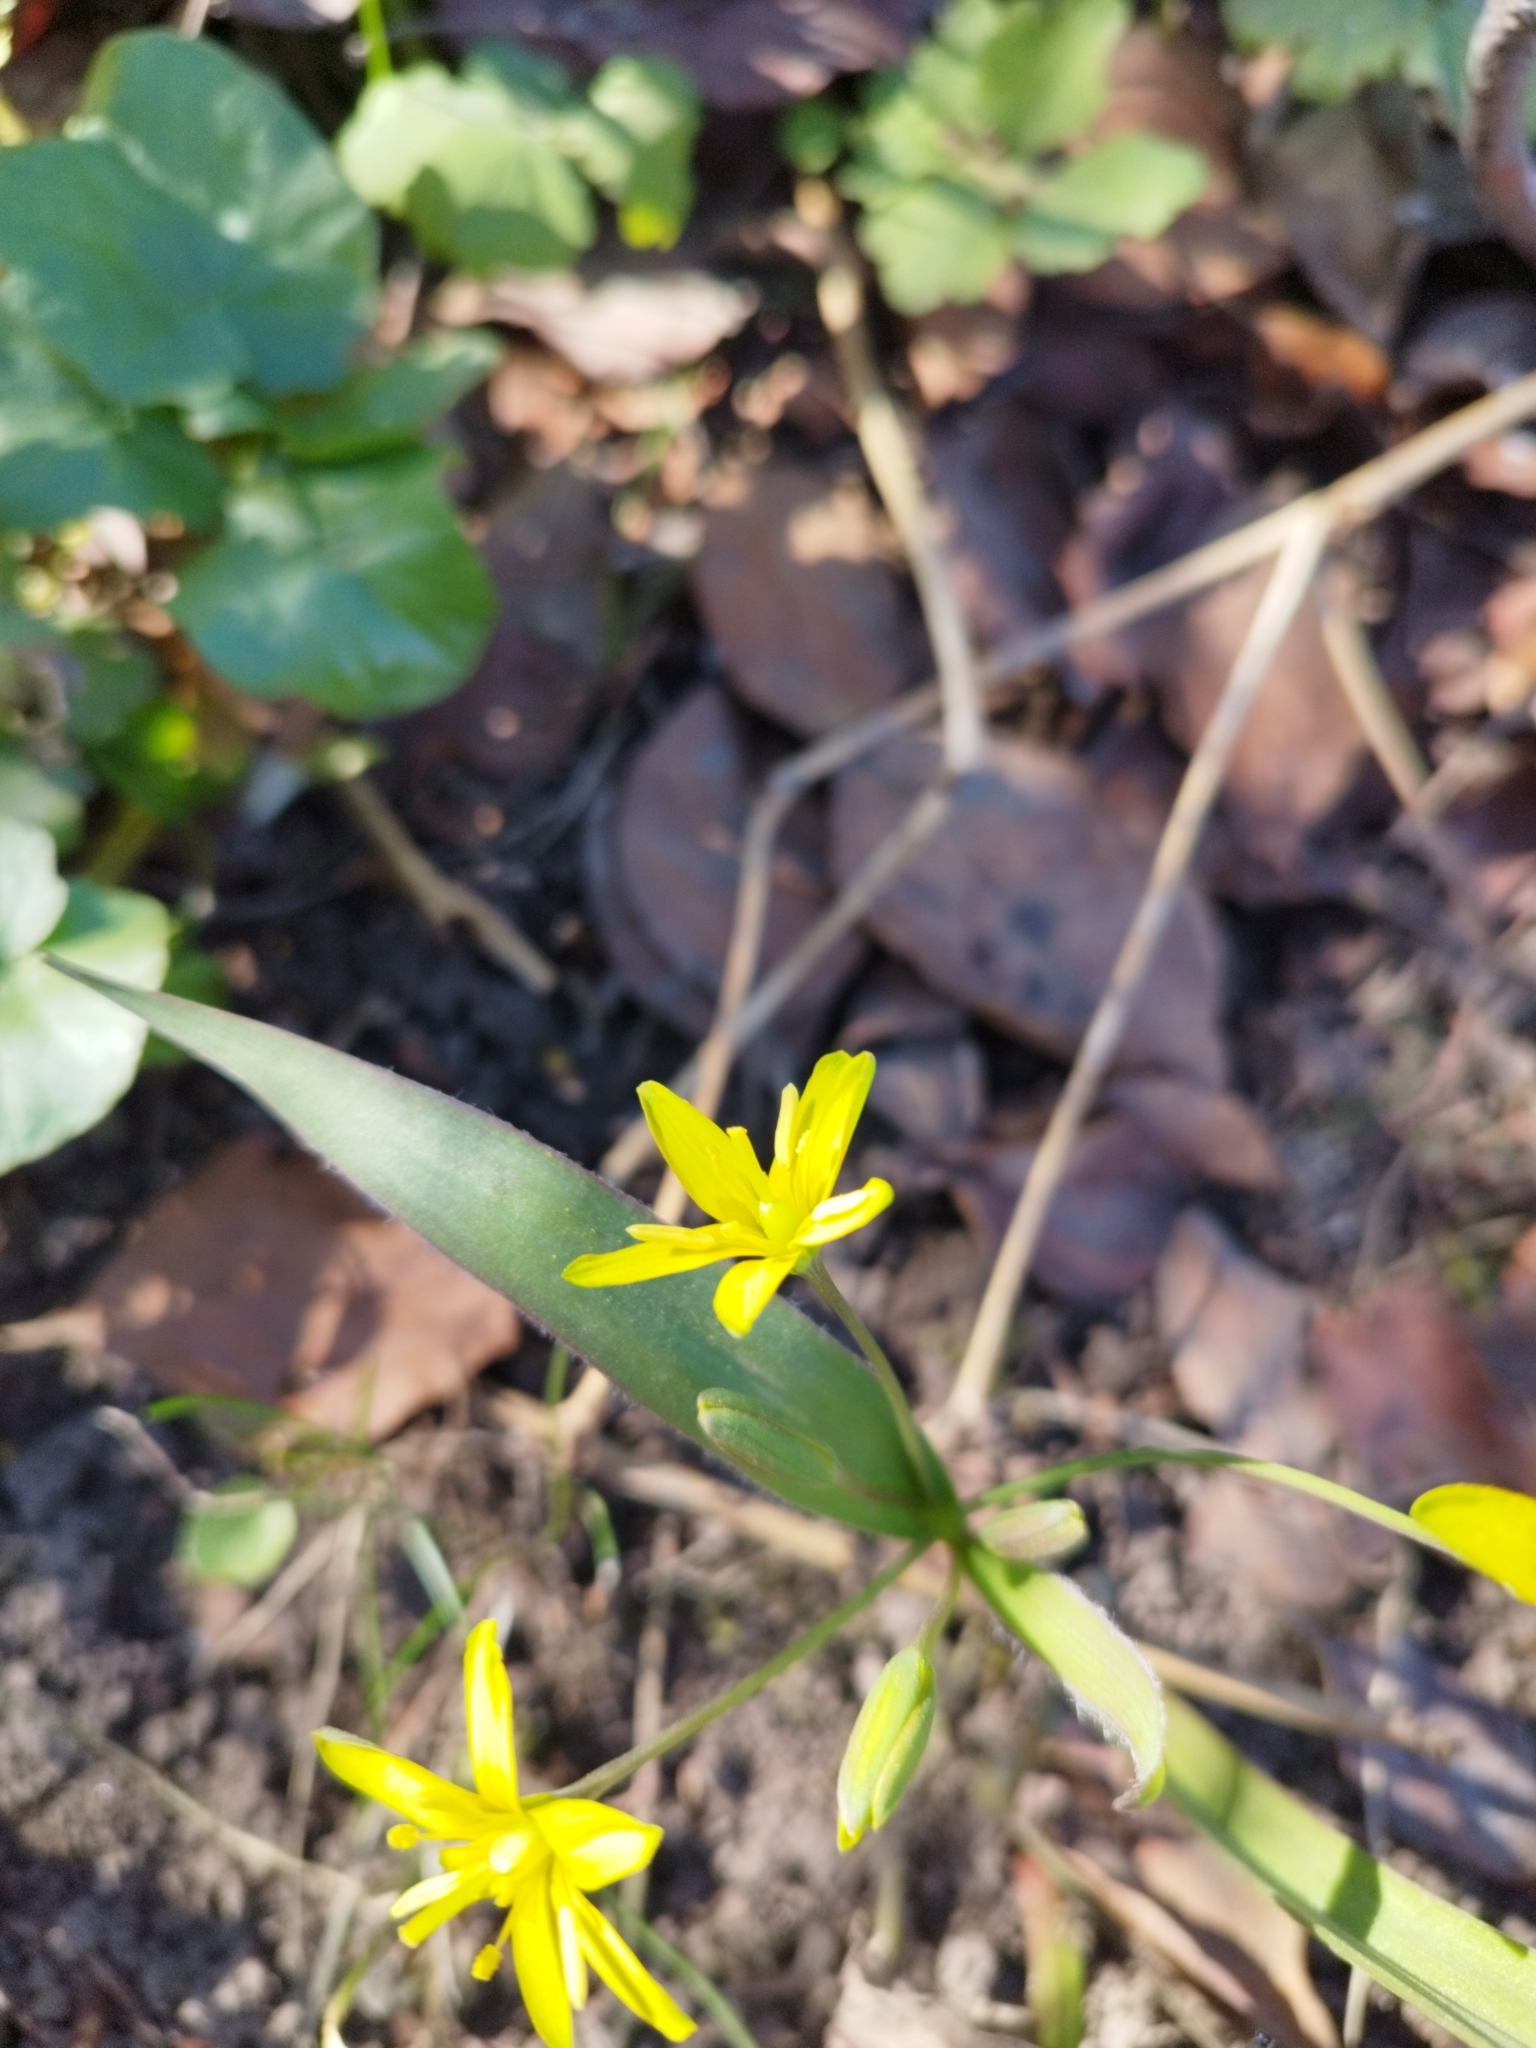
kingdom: Plantae
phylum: Tracheophyta
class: Liliopsida
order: Liliales
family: Liliaceae
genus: Gagea
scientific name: Gagea lutea
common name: Yellow star-of-bethlehem
